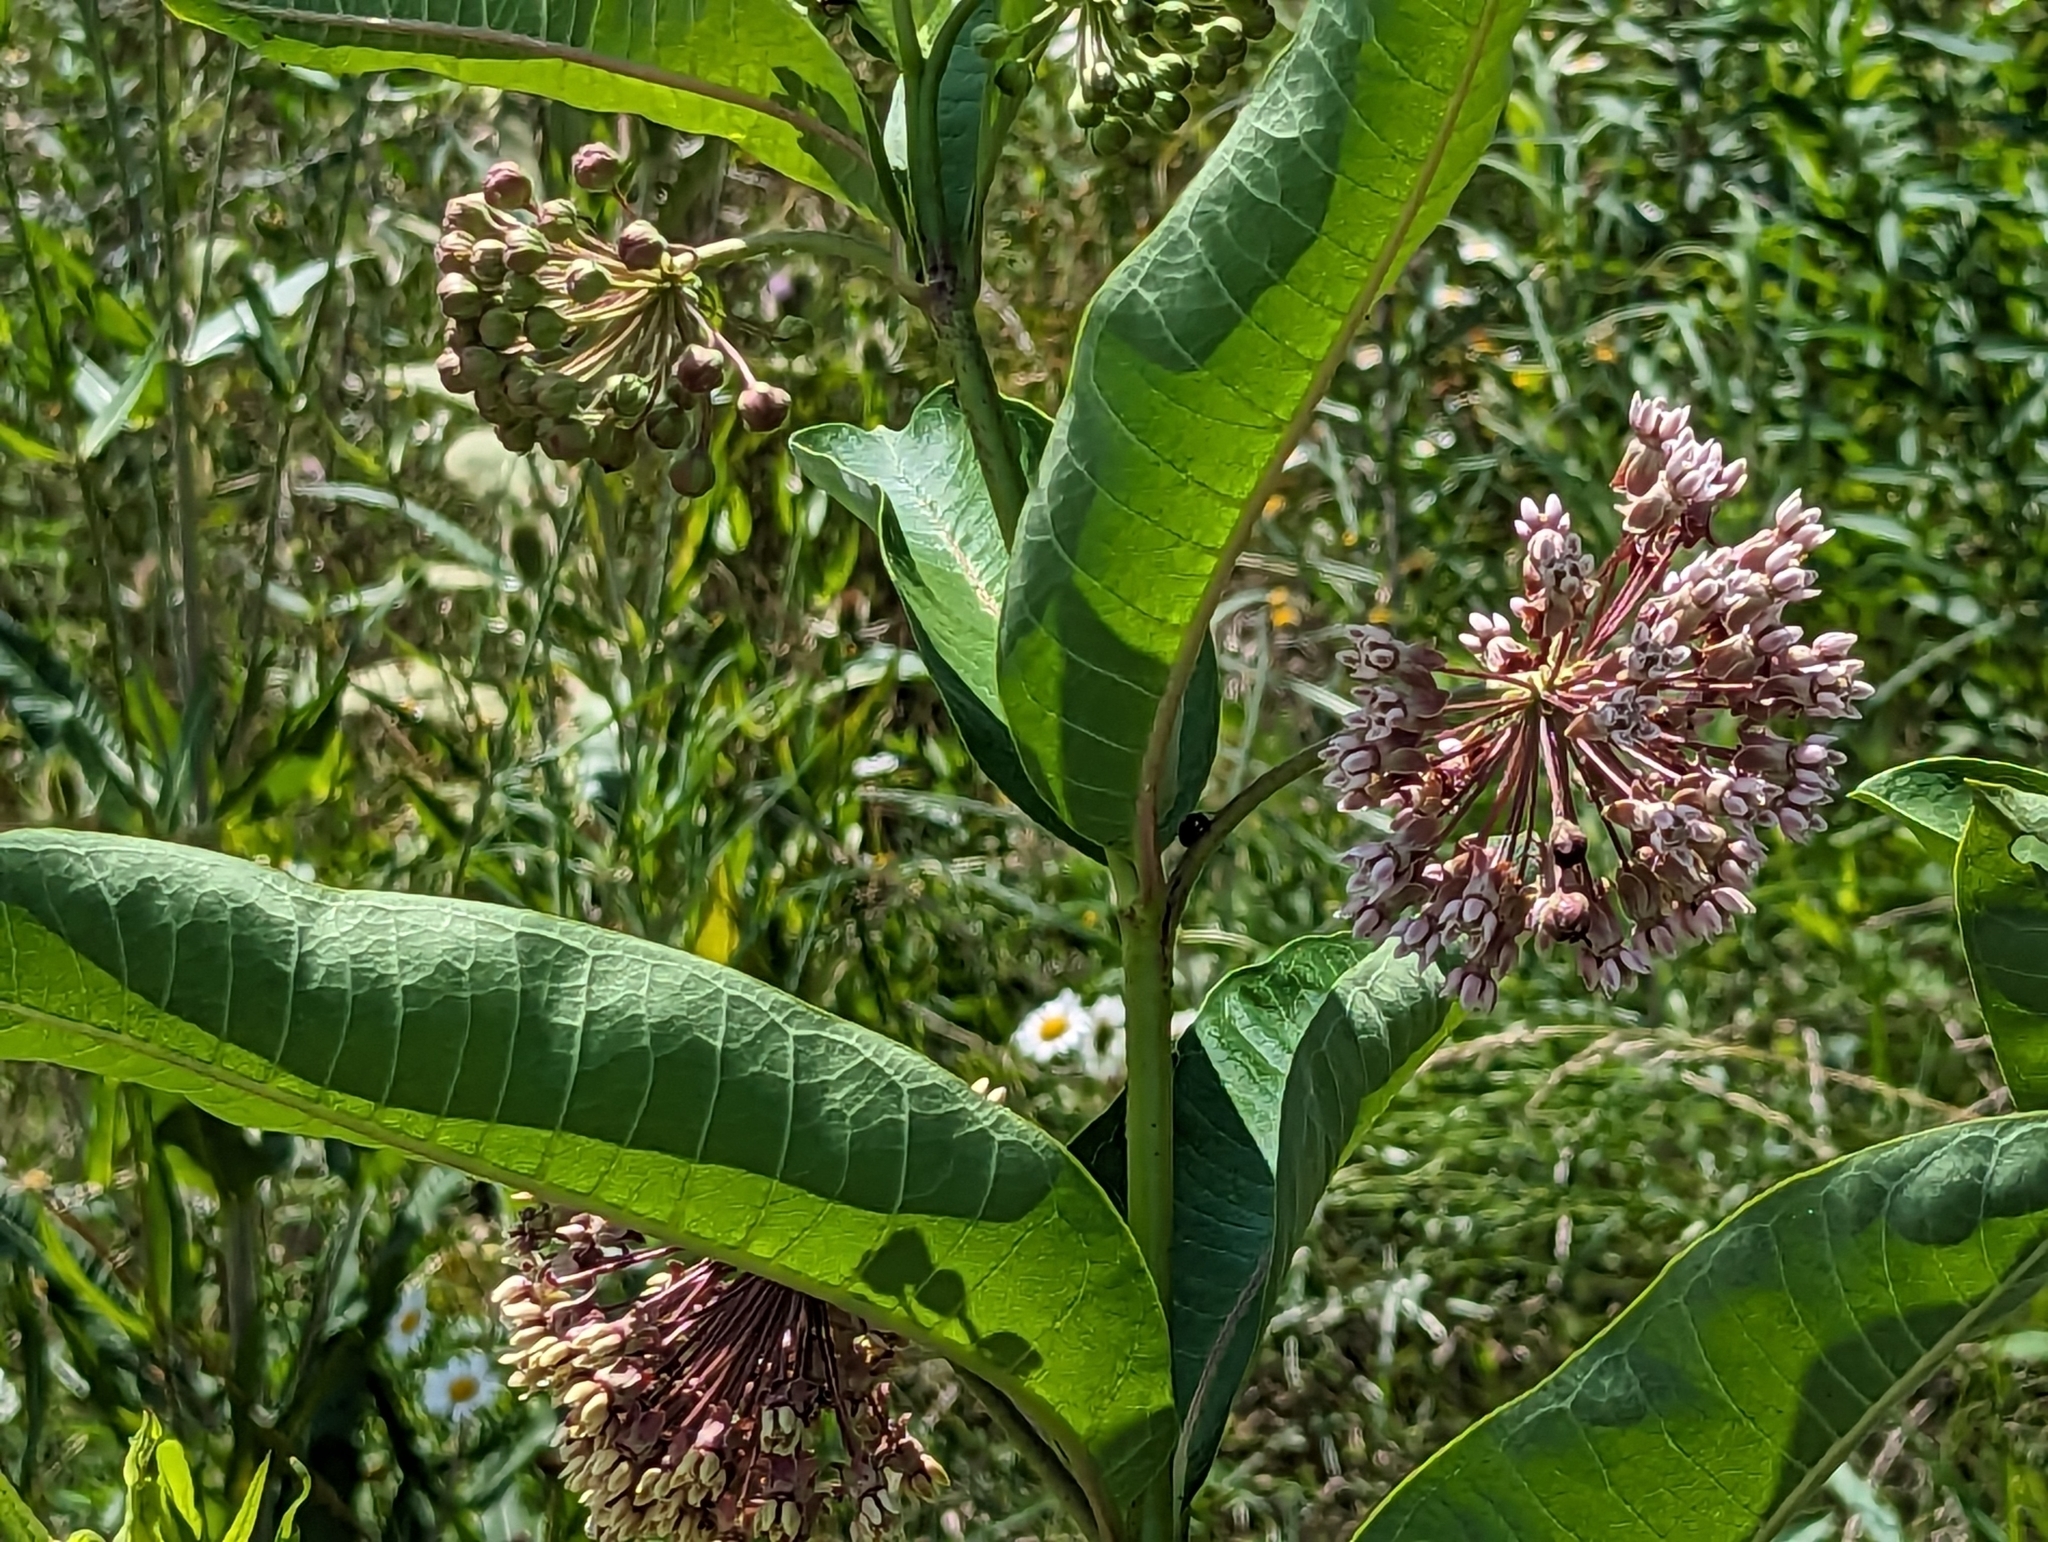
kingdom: Plantae
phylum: Tracheophyta
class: Magnoliopsida
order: Gentianales
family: Apocynaceae
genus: Asclepias
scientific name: Asclepias syriaca
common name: Common milkweed
